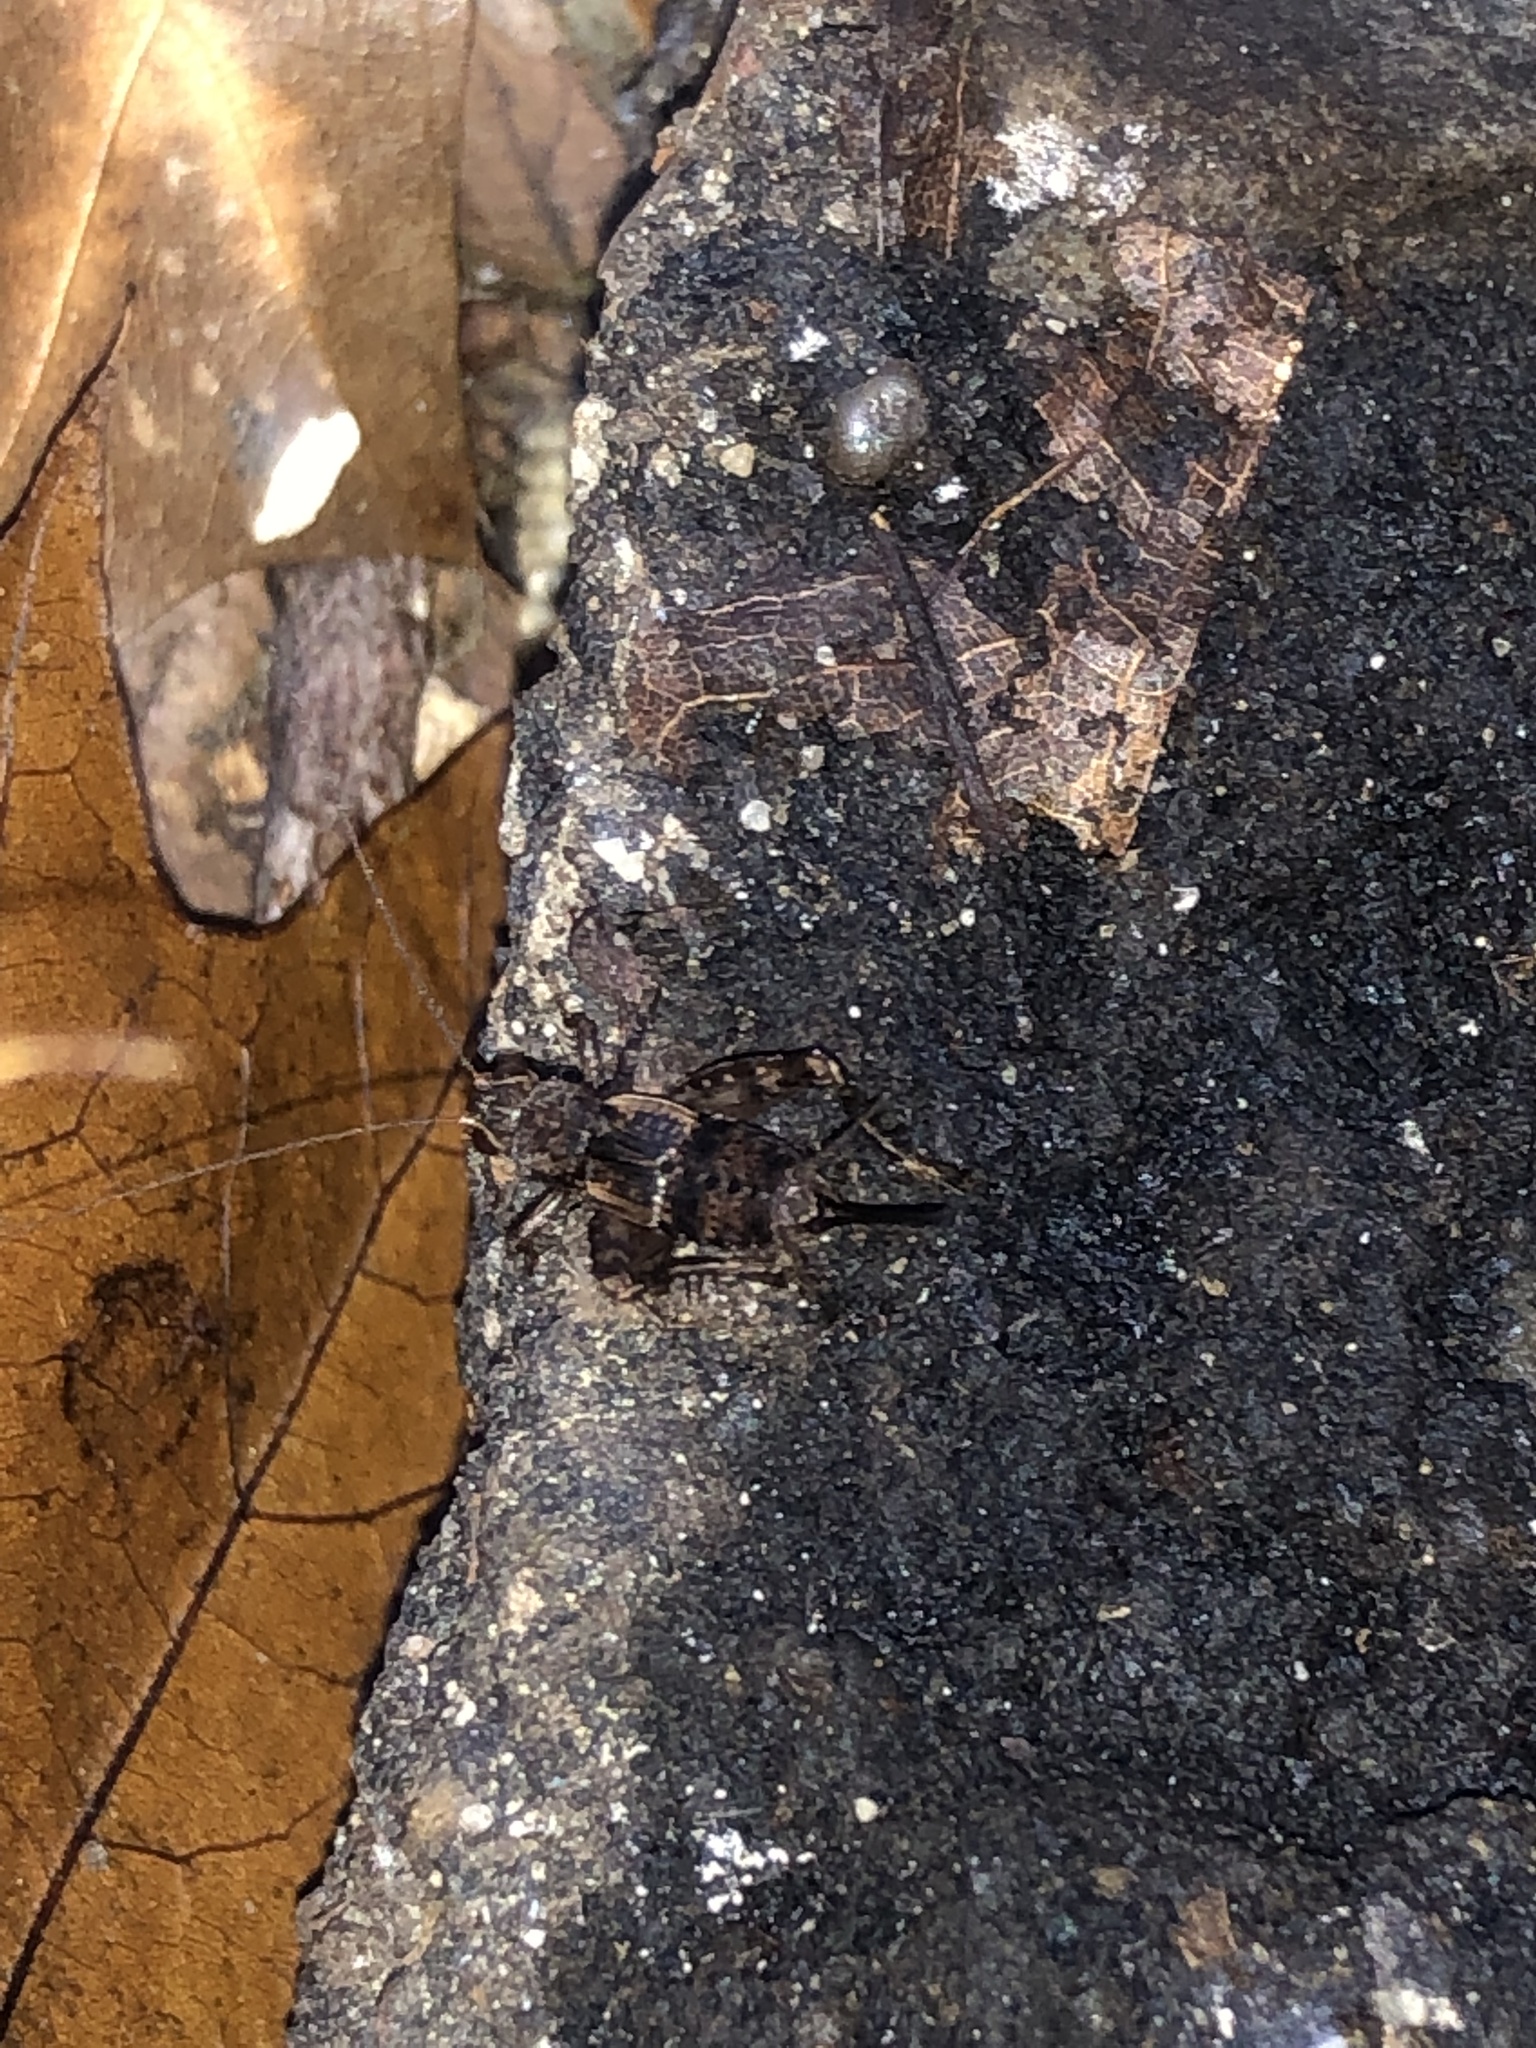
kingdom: Animalia
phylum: Arthropoda
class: Insecta
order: Orthoptera
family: Trigonidiidae
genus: Allonemobius
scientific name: Allonemobius maculatus
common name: Larger spotted ground cricket
